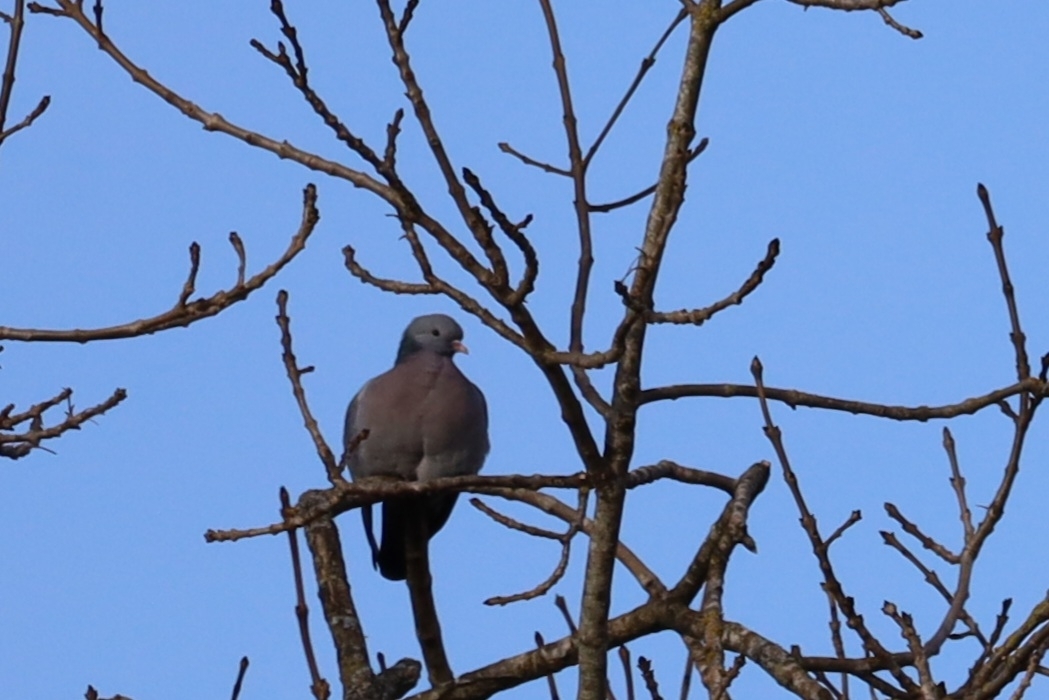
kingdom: Animalia
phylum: Chordata
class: Aves
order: Columbiformes
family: Columbidae
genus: Columba
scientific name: Columba oenas
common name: Stock dove
